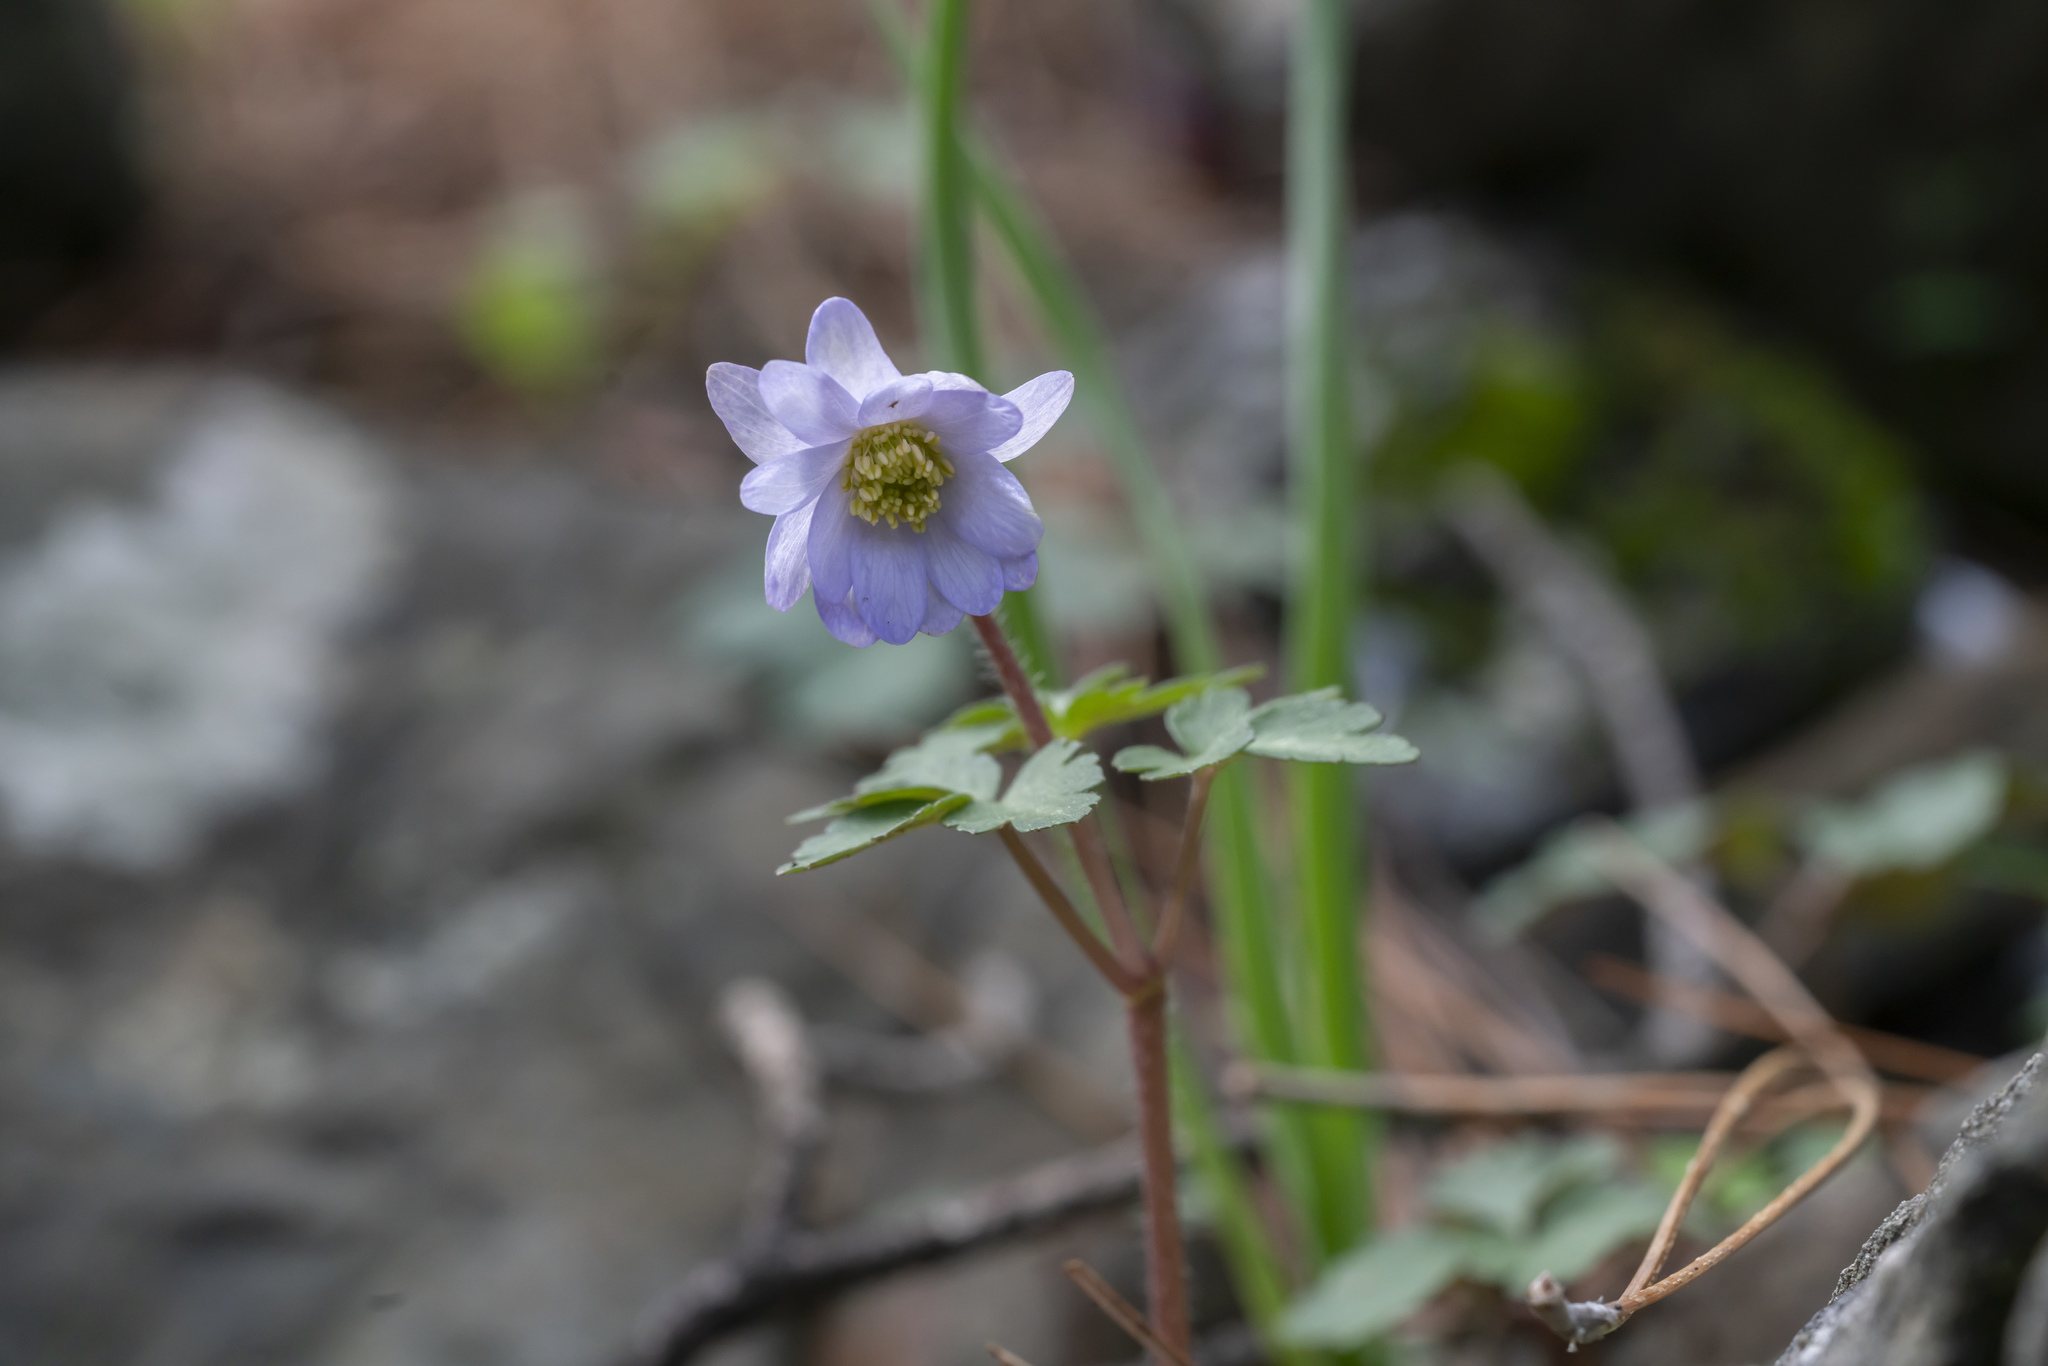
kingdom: Plantae
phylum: Tracheophyta
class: Magnoliopsida
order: Ranunculales
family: Ranunculaceae
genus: Anemone
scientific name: Anemone blanda
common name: Balkan anemone
